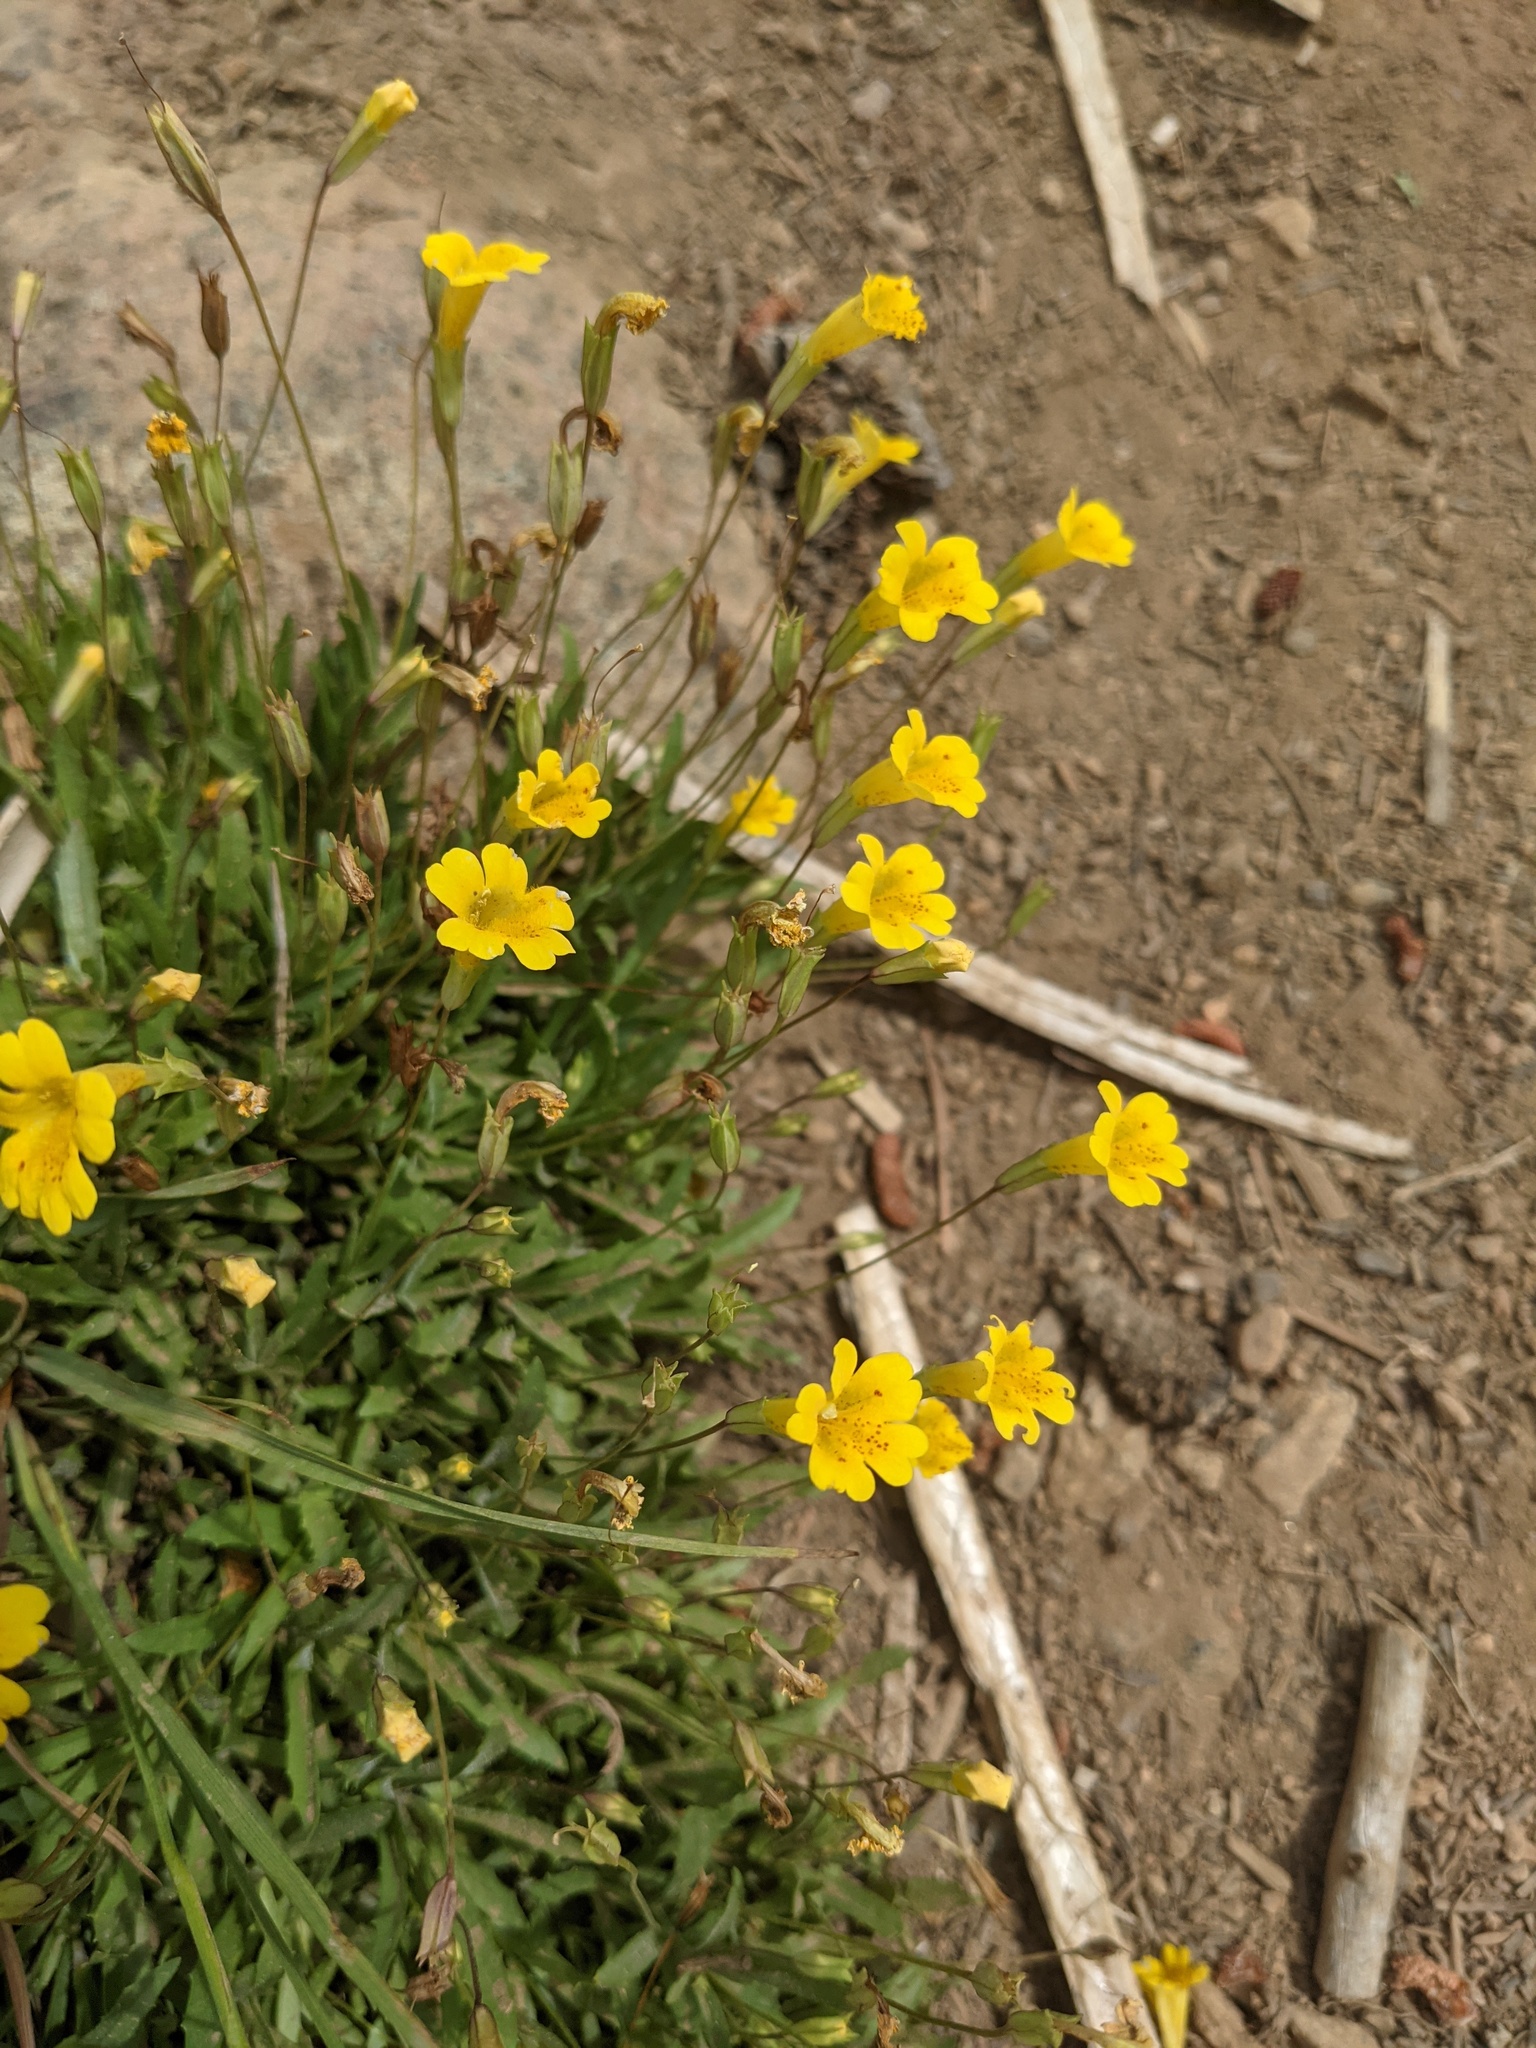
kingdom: Plantae
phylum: Tracheophyta
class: Magnoliopsida
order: Lamiales
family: Phrymaceae
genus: Erythranthe
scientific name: Erythranthe linearifolia
